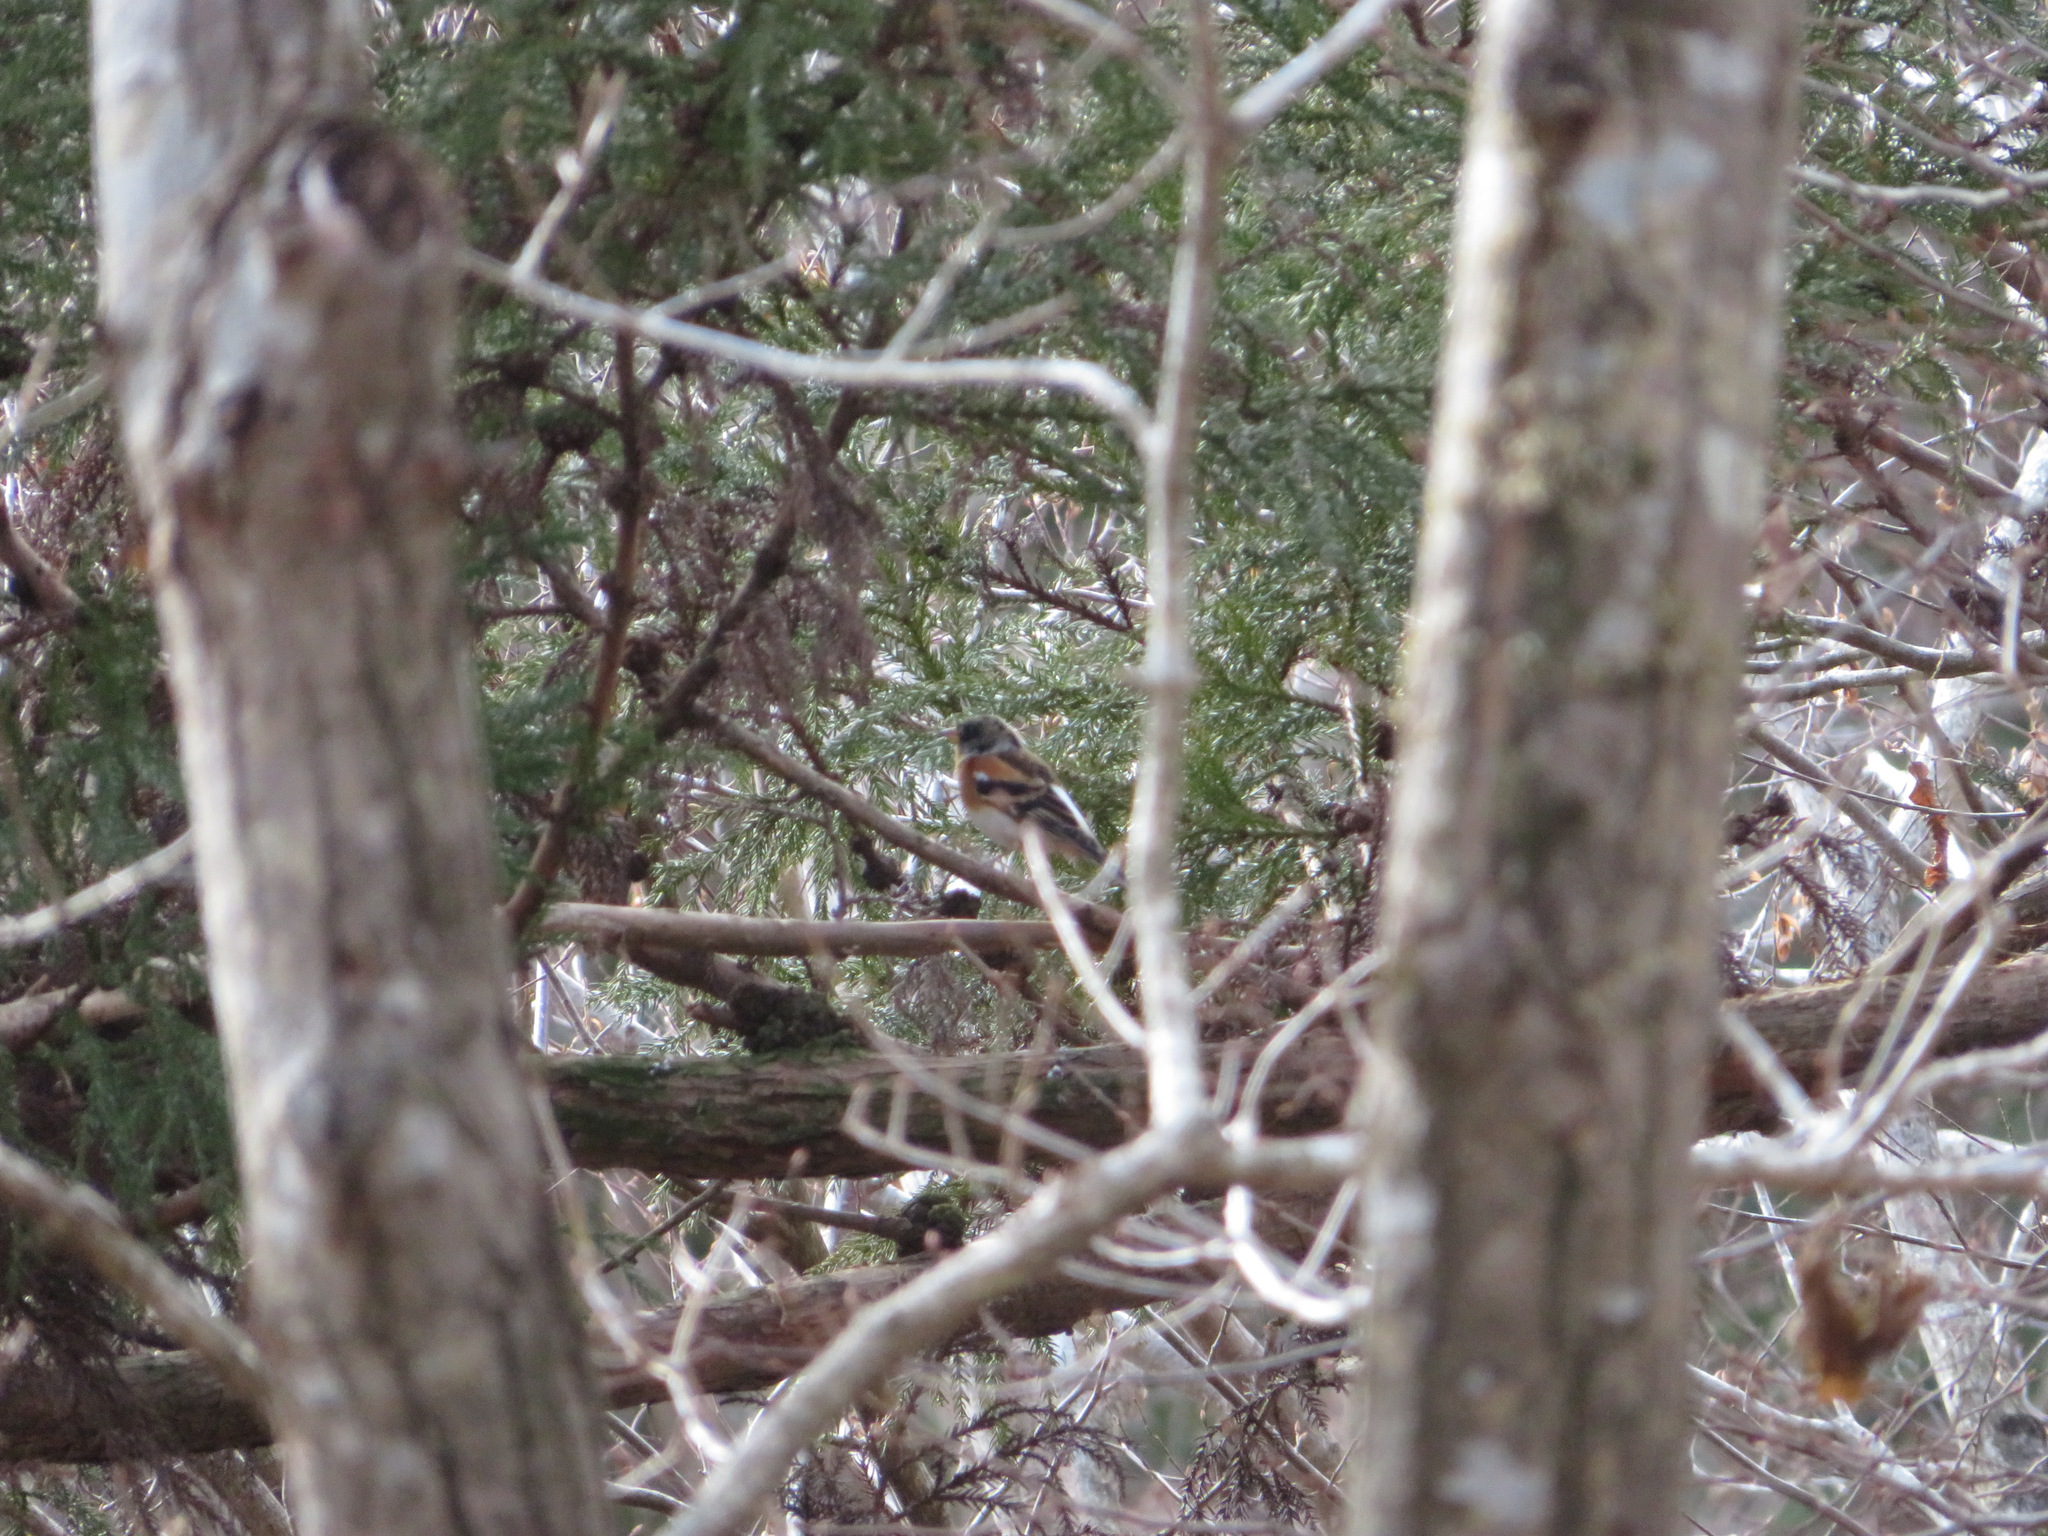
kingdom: Animalia
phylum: Chordata
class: Aves
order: Passeriformes
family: Fringillidae
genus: Fringilla
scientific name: Fringilla montifringilla
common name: Brambling
